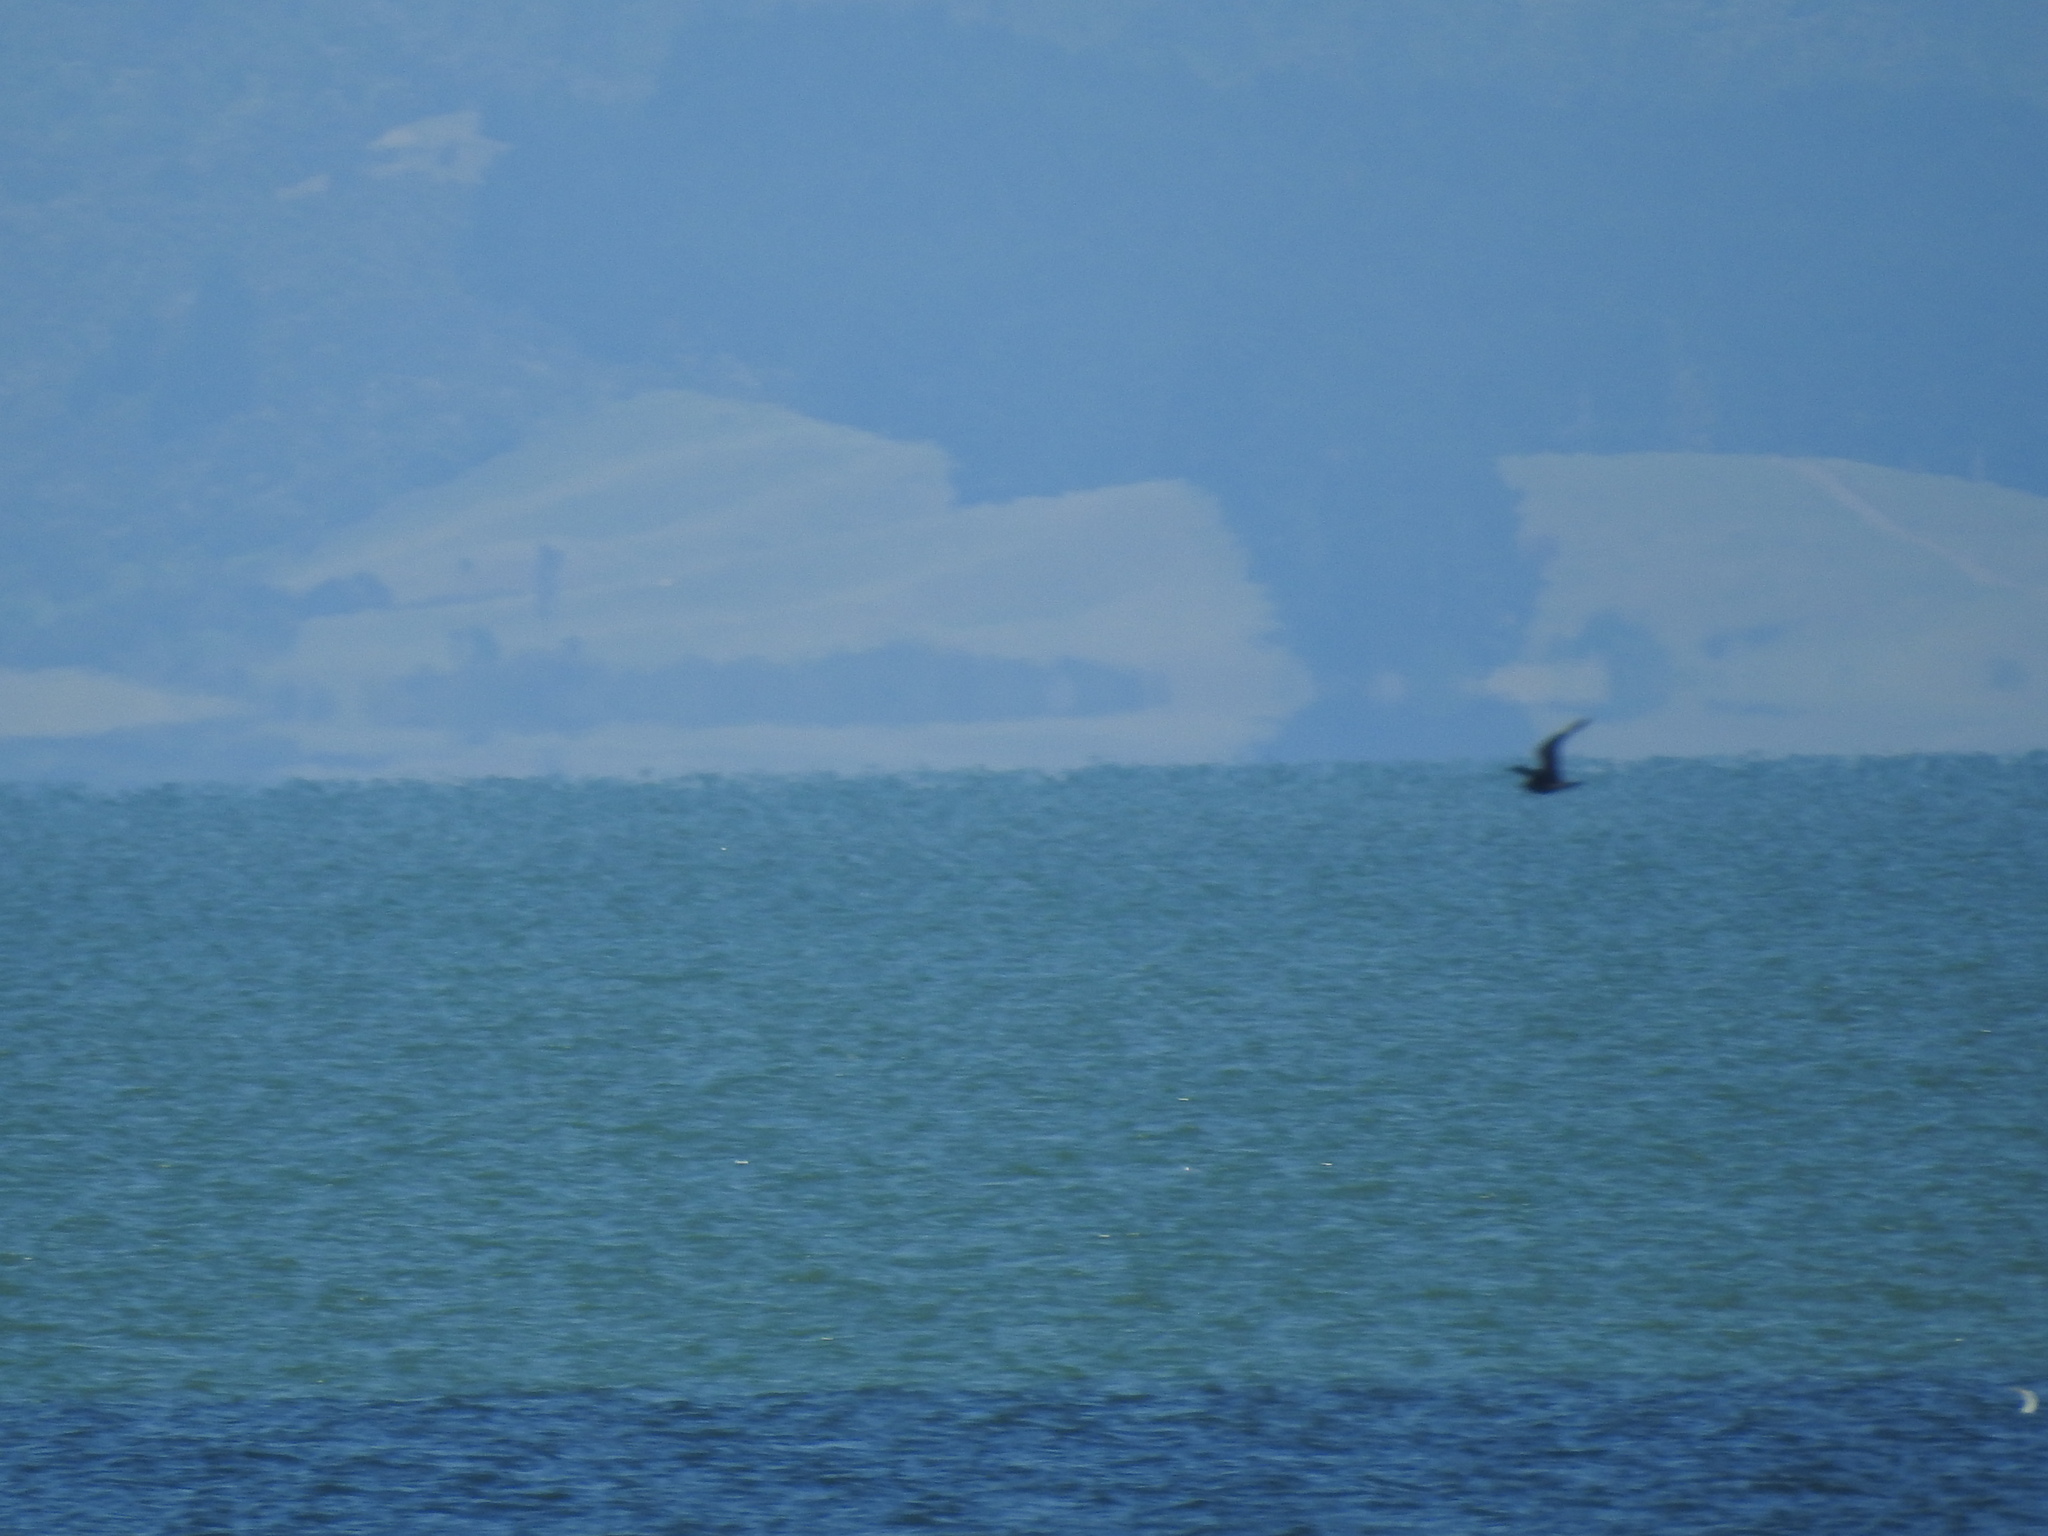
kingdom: Animalia
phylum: Chordata
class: Aves
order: Charadriiformes
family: Stercorariidae
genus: Stercorarius
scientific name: Stercorarius parasiticus
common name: Parasitic jaeger
